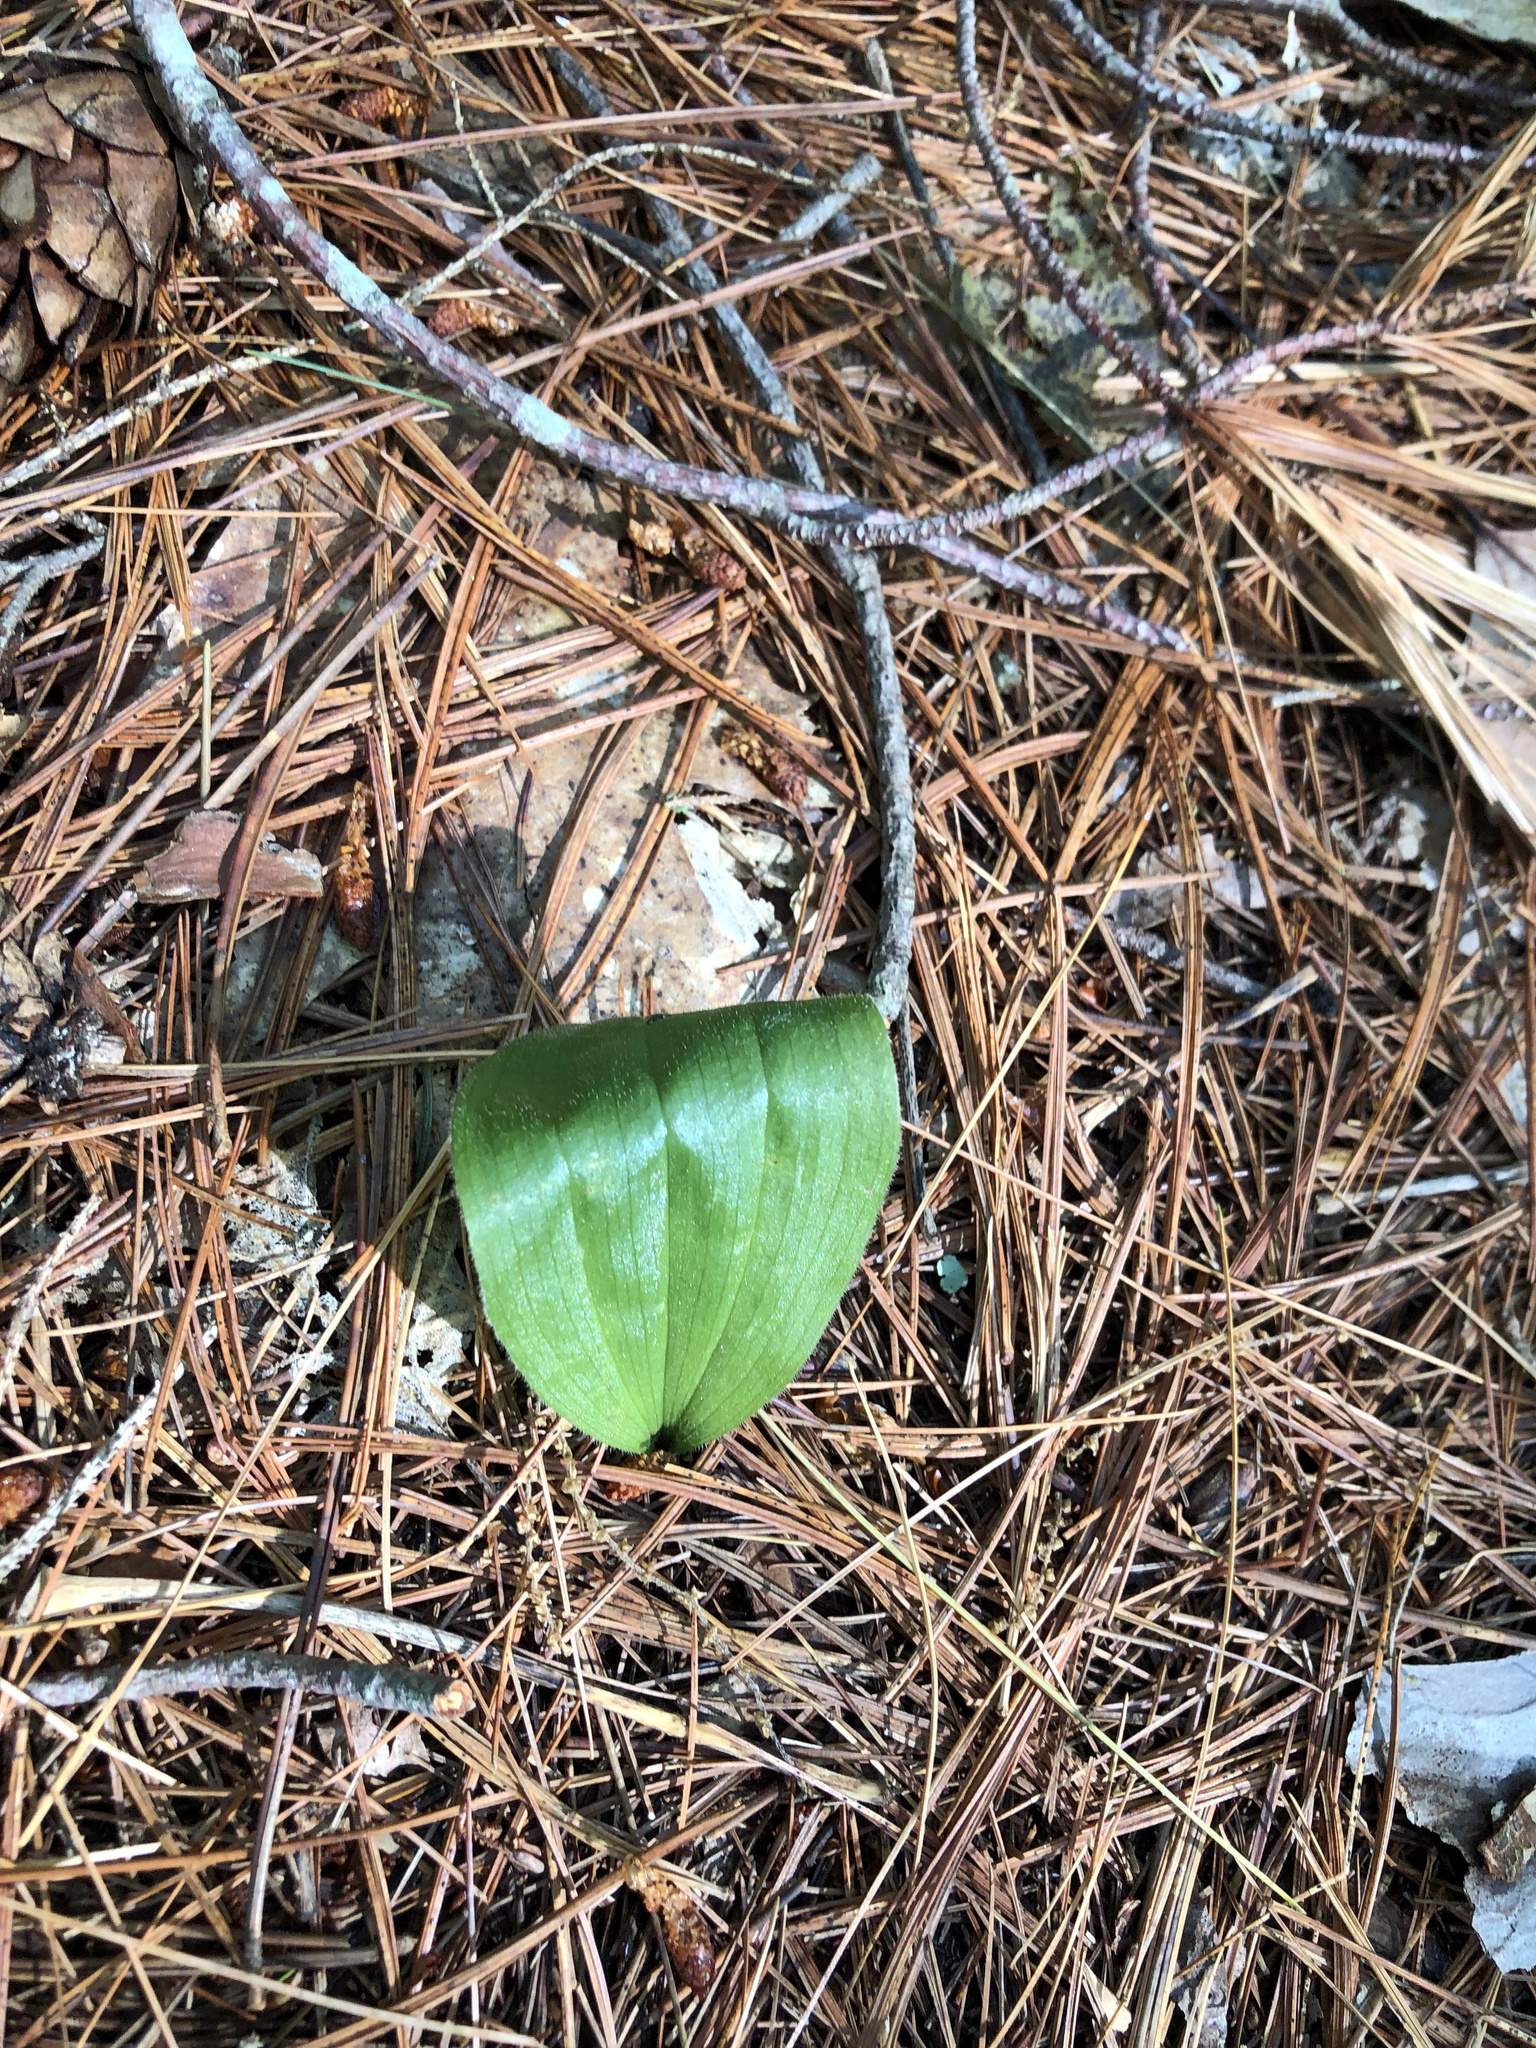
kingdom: Plantae
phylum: Tracheophyta
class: Liliopsida
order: Asparagales
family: Orchidaceae
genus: Cypripedium
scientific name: Cypripedium acaule
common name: Pink lady's-slipper
